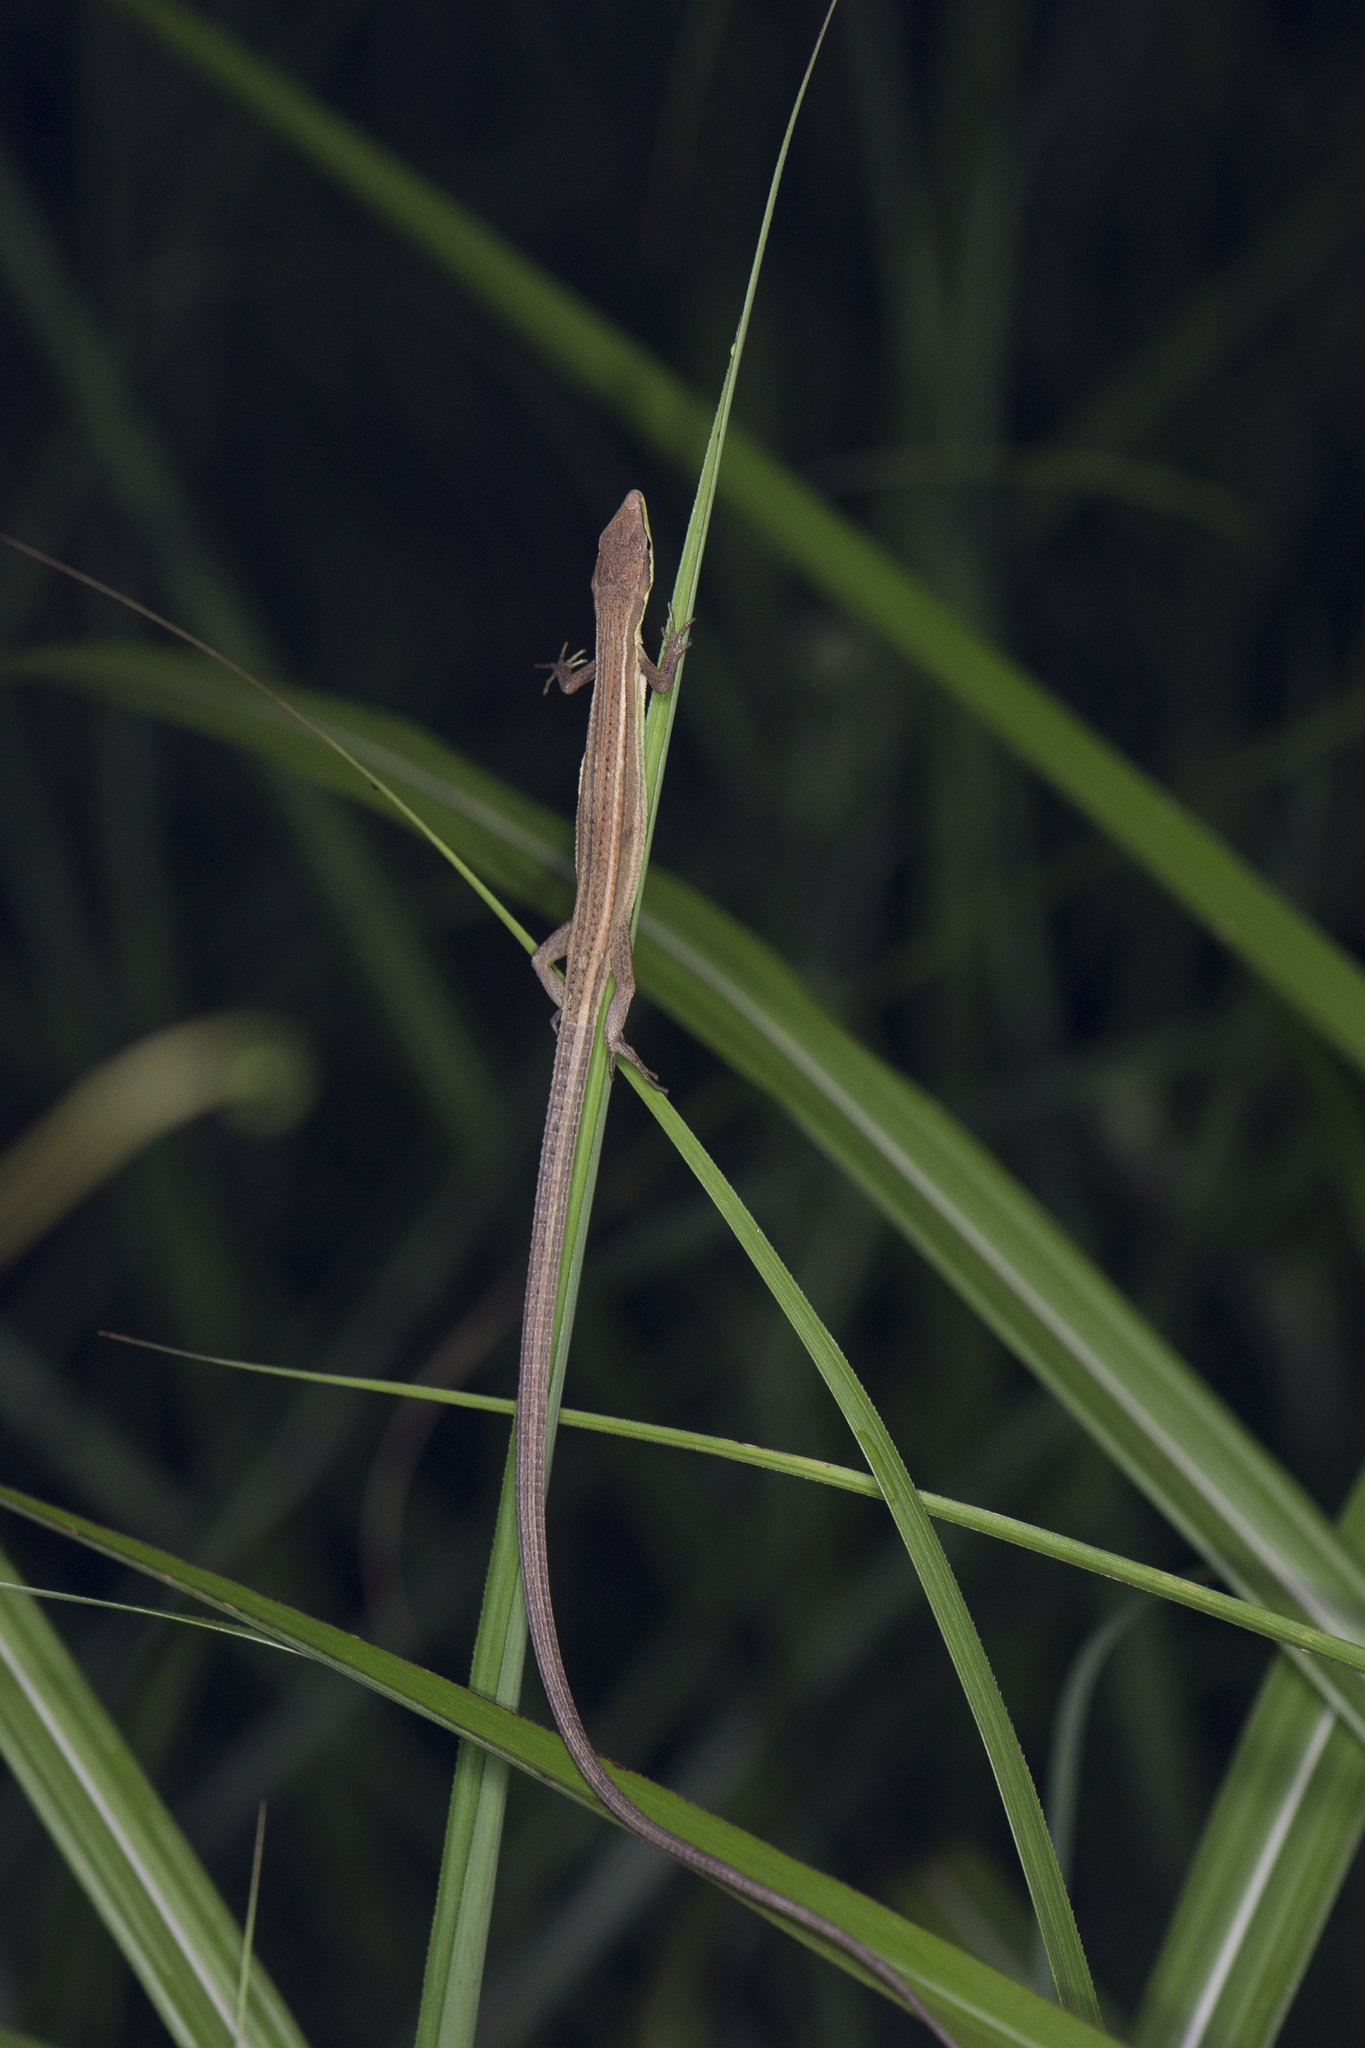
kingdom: Animalia
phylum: Chordata
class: Squamata
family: Lacertidae
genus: Takydromus
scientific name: Takydromus stejnegeri
